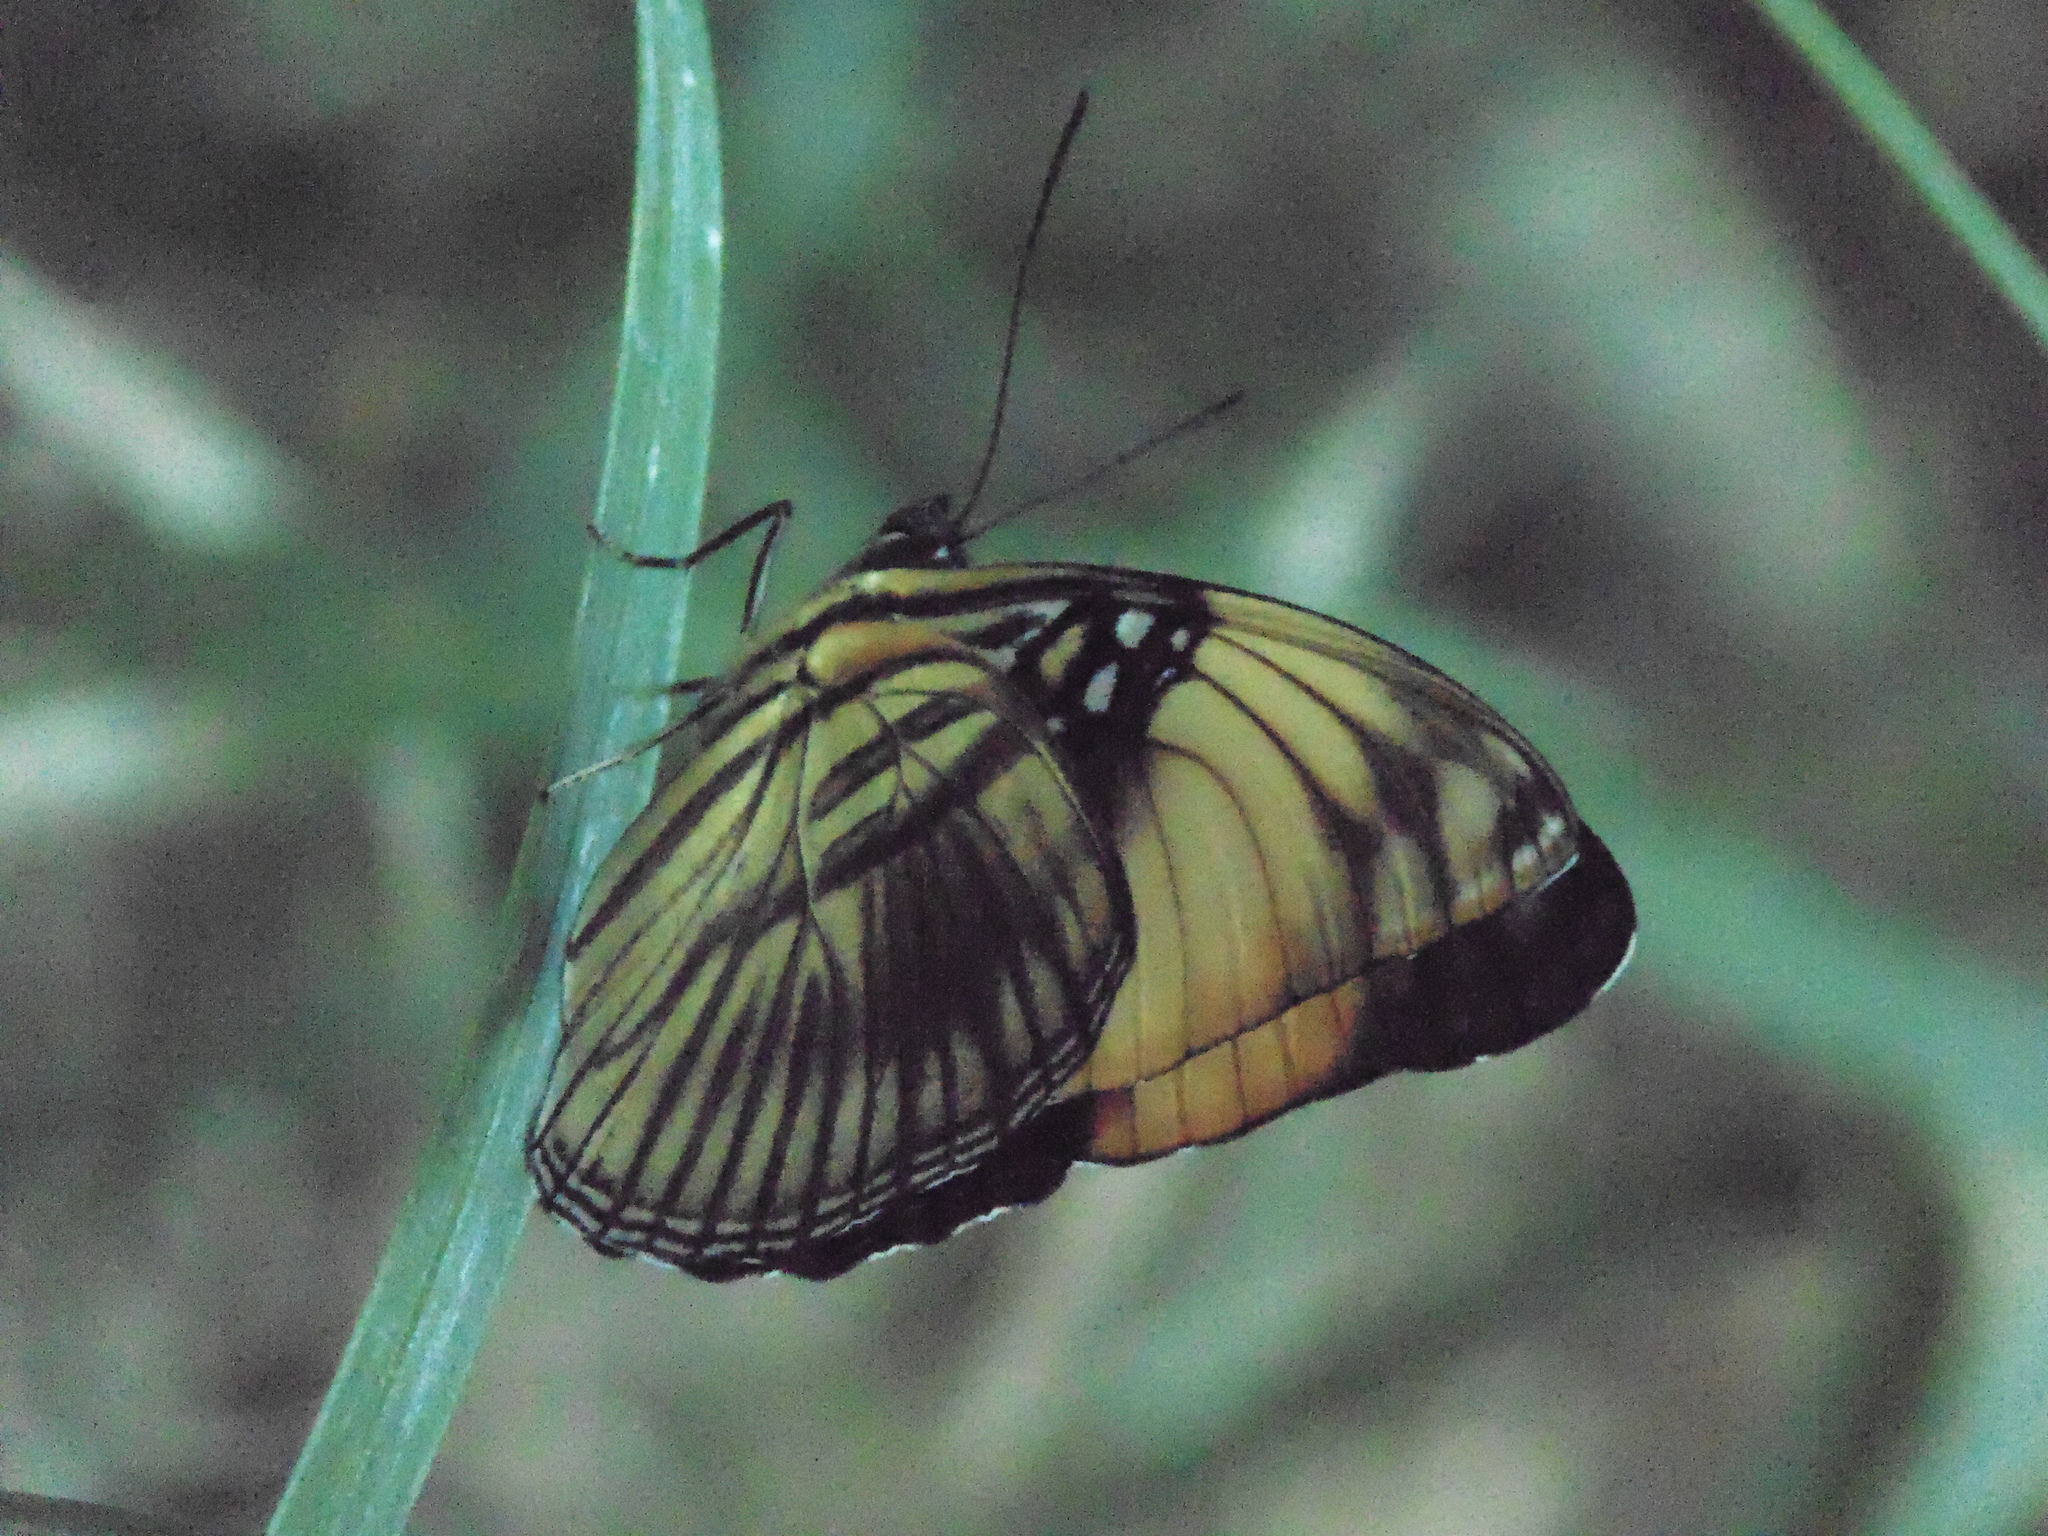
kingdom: Animalia
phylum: Arthropoda
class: Insecta
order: Lepidoptera
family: Nymphalidae
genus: Limenitis
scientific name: Limenitis melanthe
